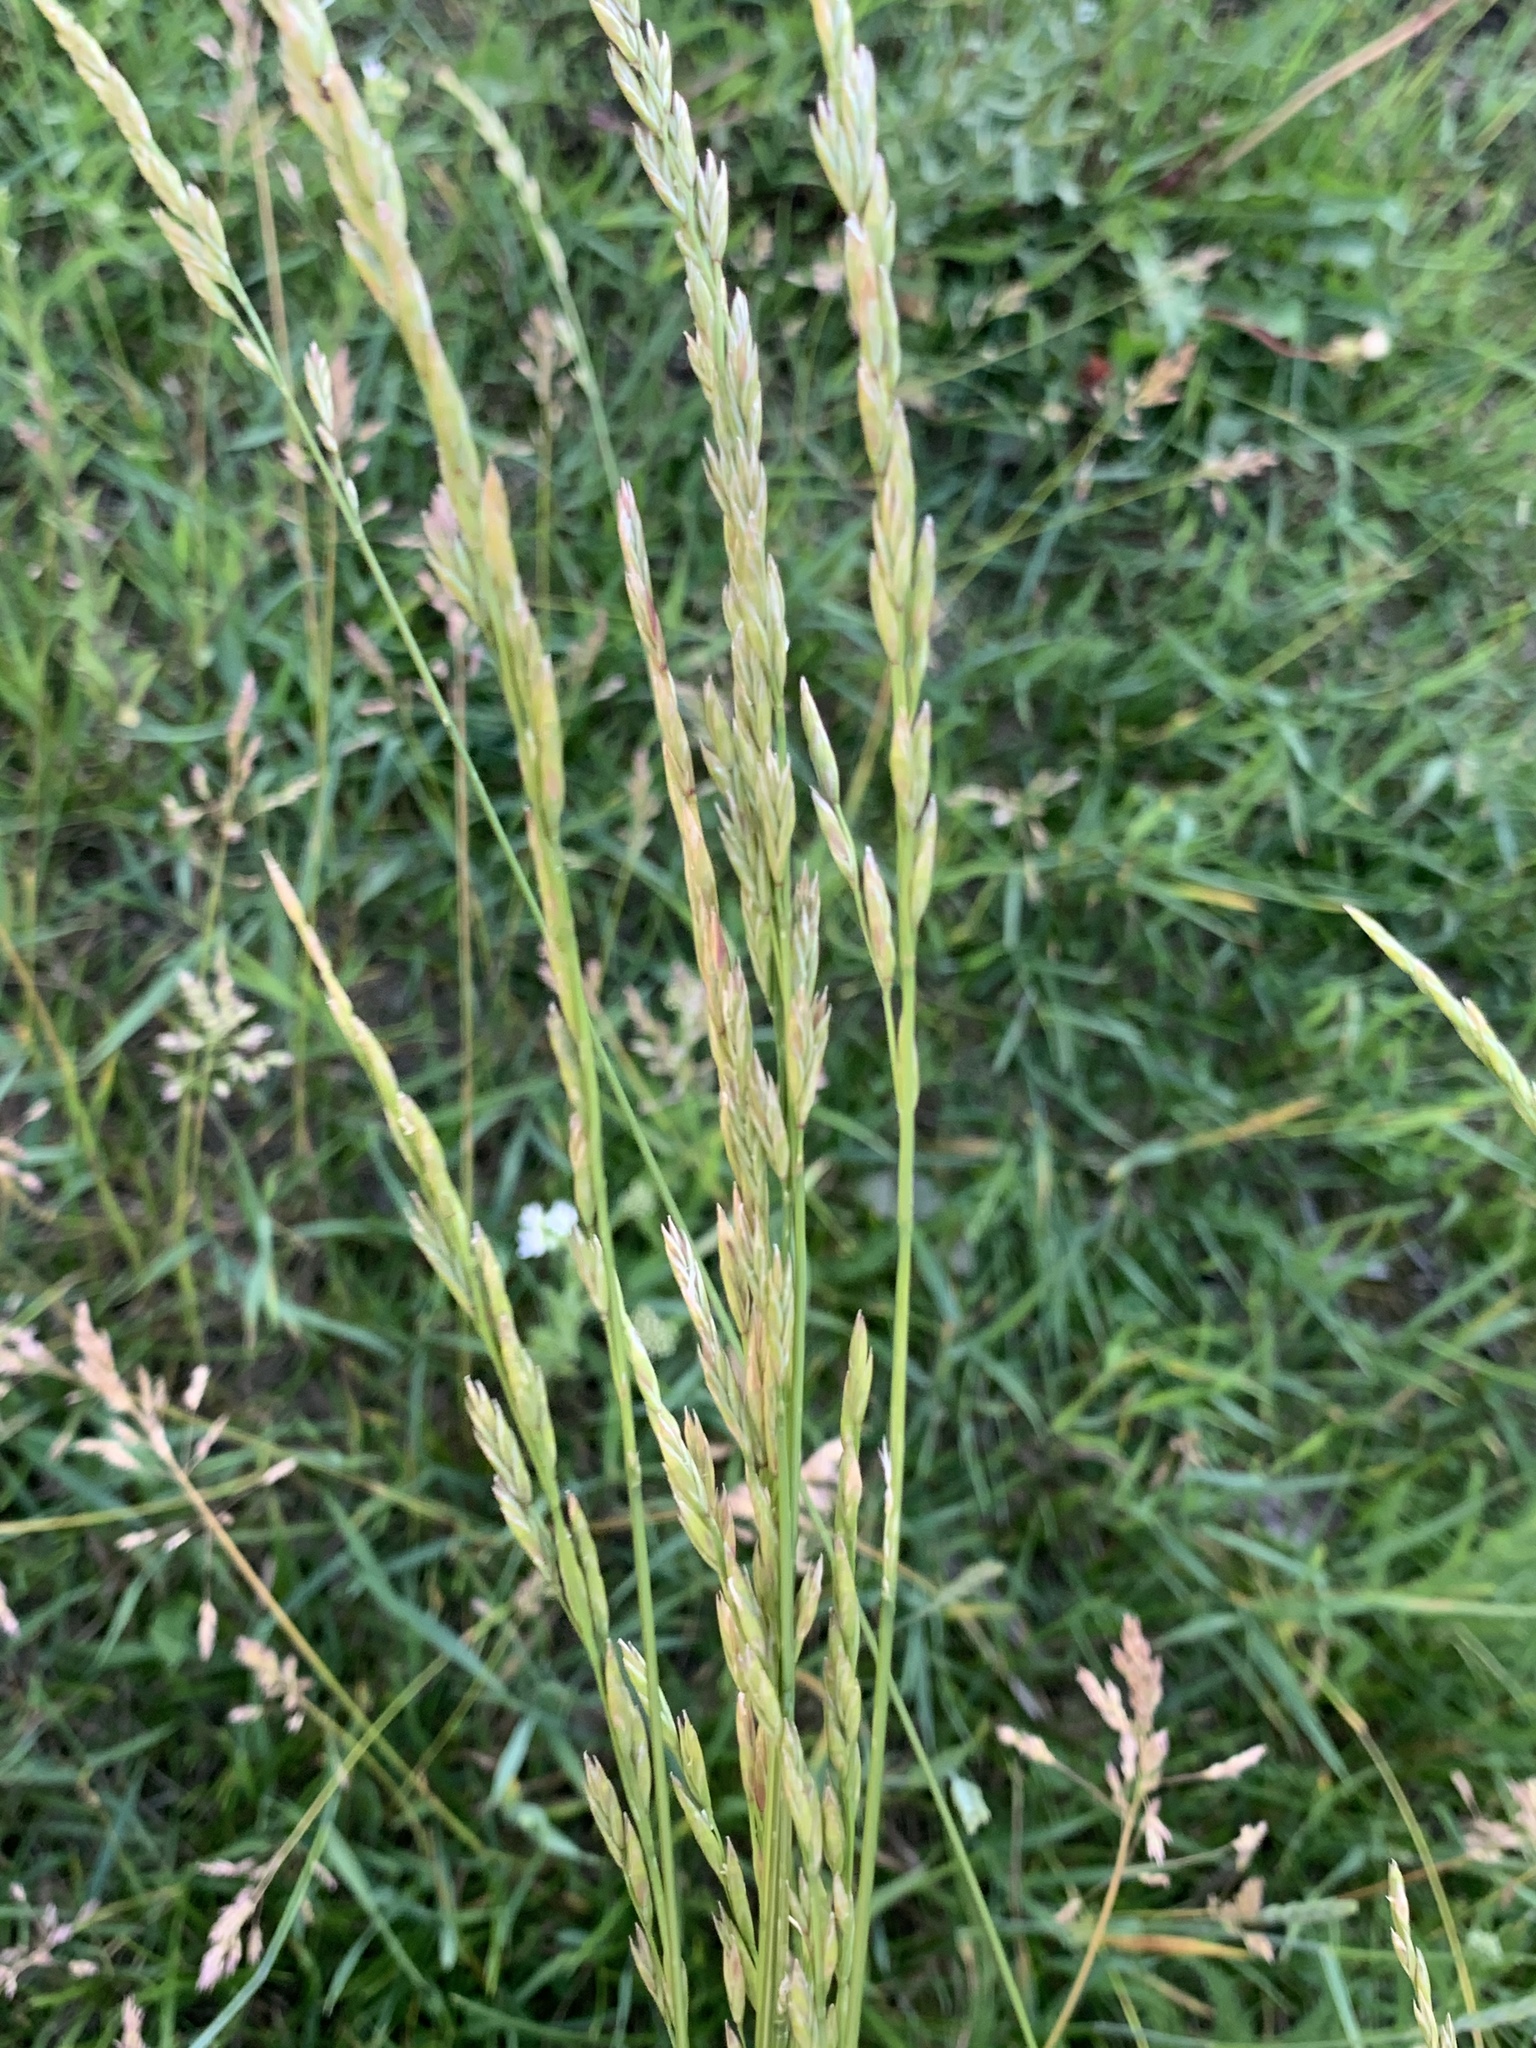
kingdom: Plantae
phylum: Tracheophyta
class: Liliopsida
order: Poales
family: Poaceae
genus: Lolium
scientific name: Lolium pratense
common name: Dover grass
